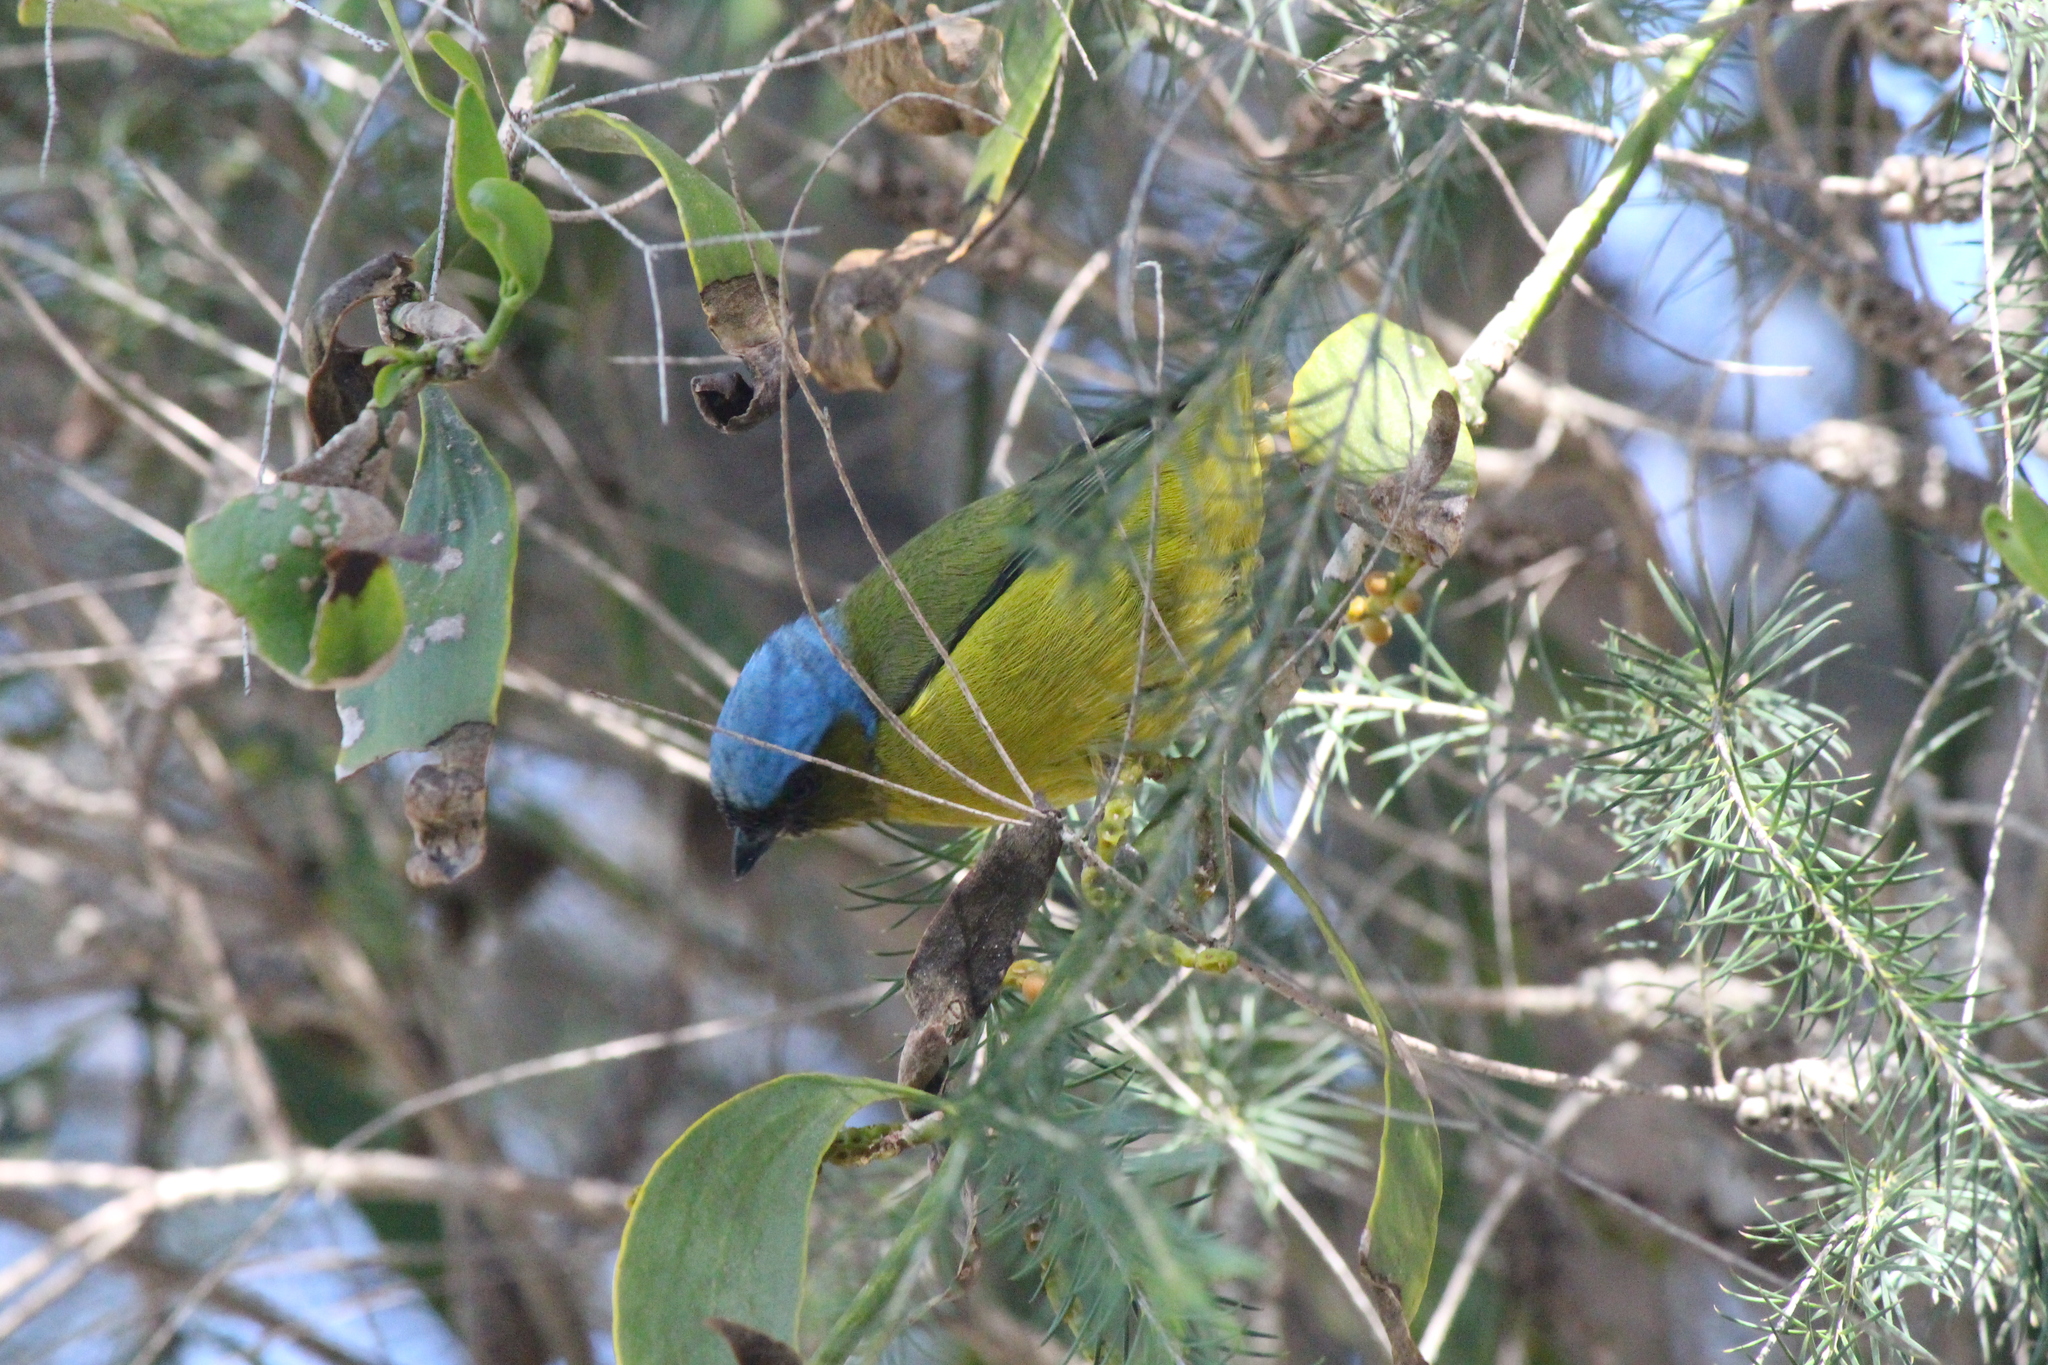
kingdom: Animalia
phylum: Chordata
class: Aves
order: Passeriformes
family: Fringillidae
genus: Euphonia
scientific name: Euphonia cyanocephala
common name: Golden-rumped euphonia
